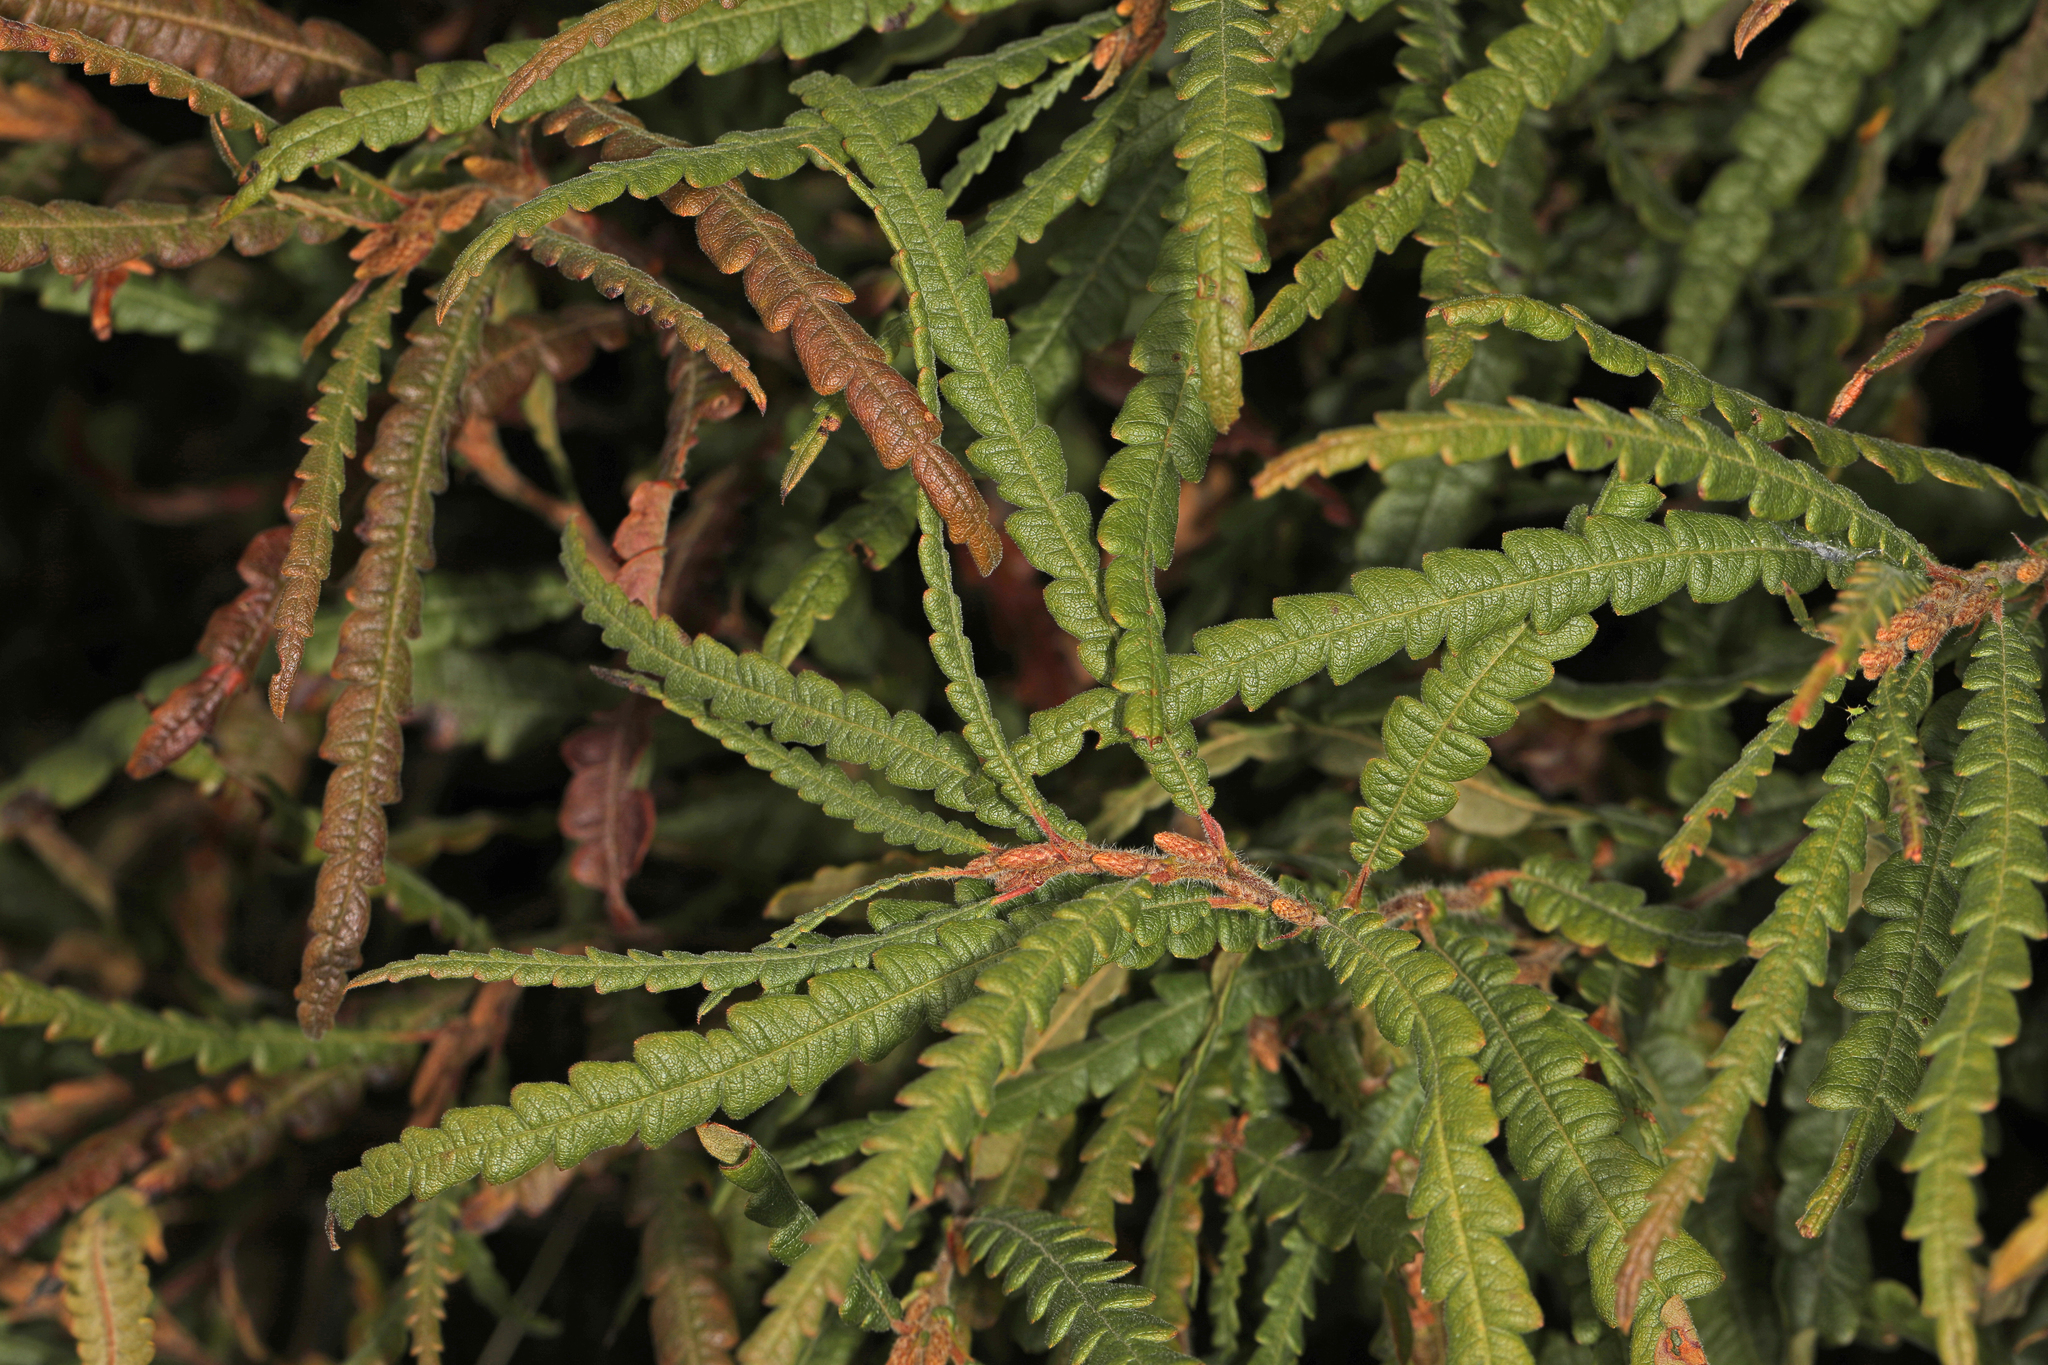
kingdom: Plantae
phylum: Tracheophyta
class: Magnoliopsida
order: Fagales
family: Myricaceae
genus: Comptonia
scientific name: Comptonia peregrina
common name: Sweet-fern
